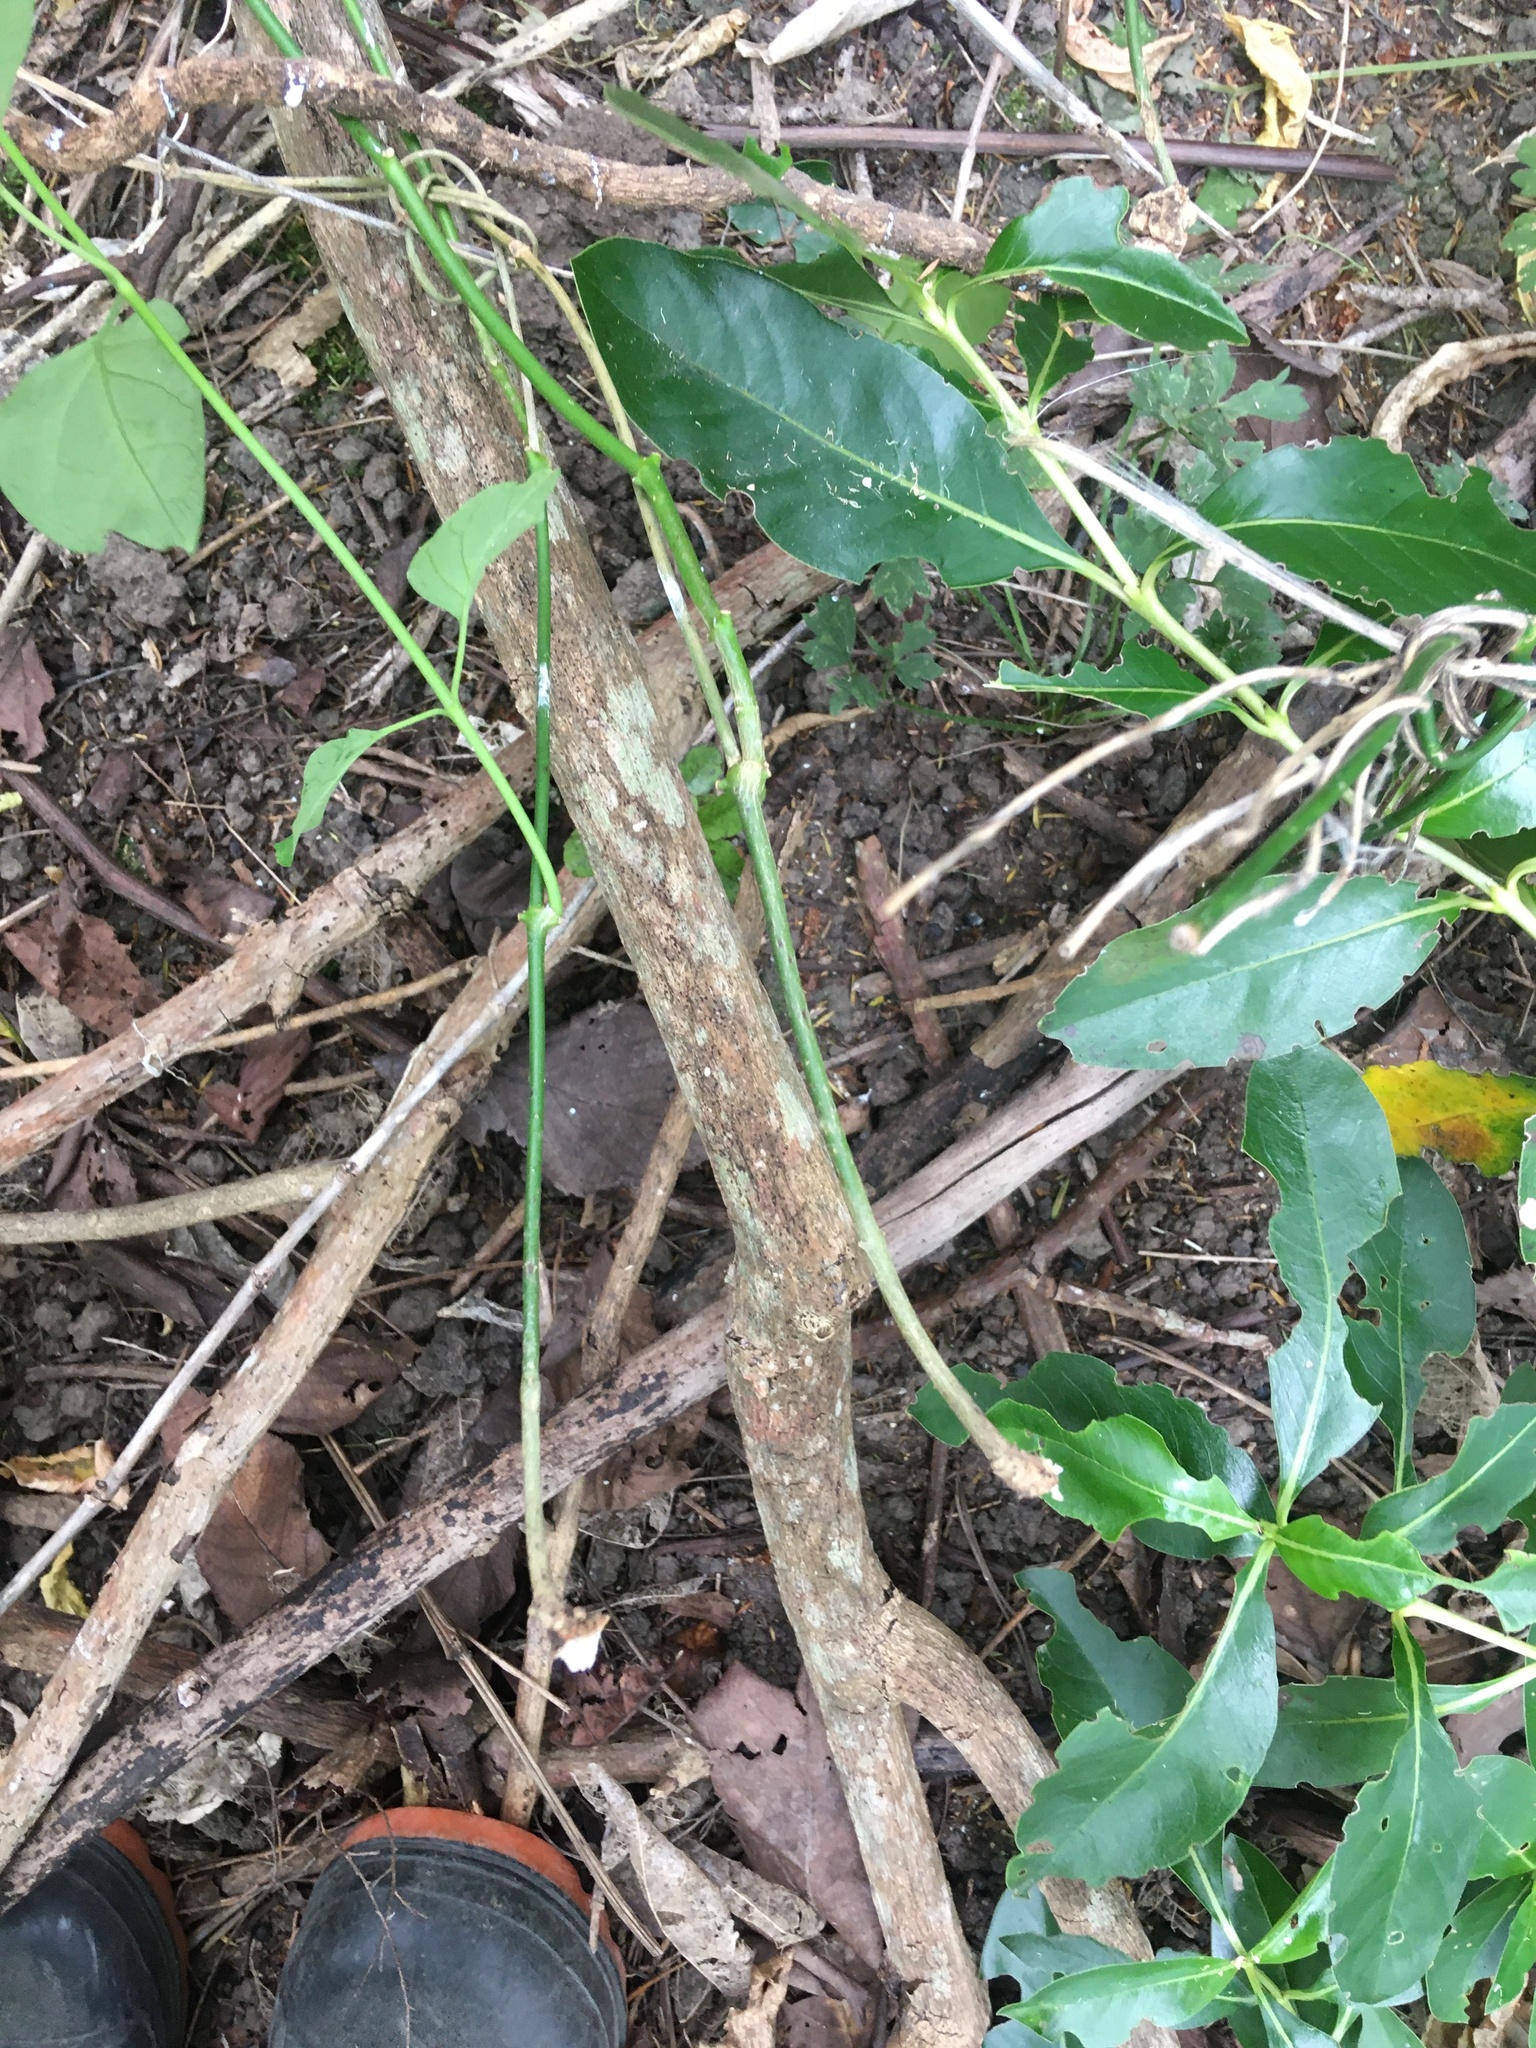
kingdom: Plantae
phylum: Tracheophyta
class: Magnoliopsida
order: Gentianales
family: Apocynaceae
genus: Araujia
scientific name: Araujia sericifera
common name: White bladderflower
